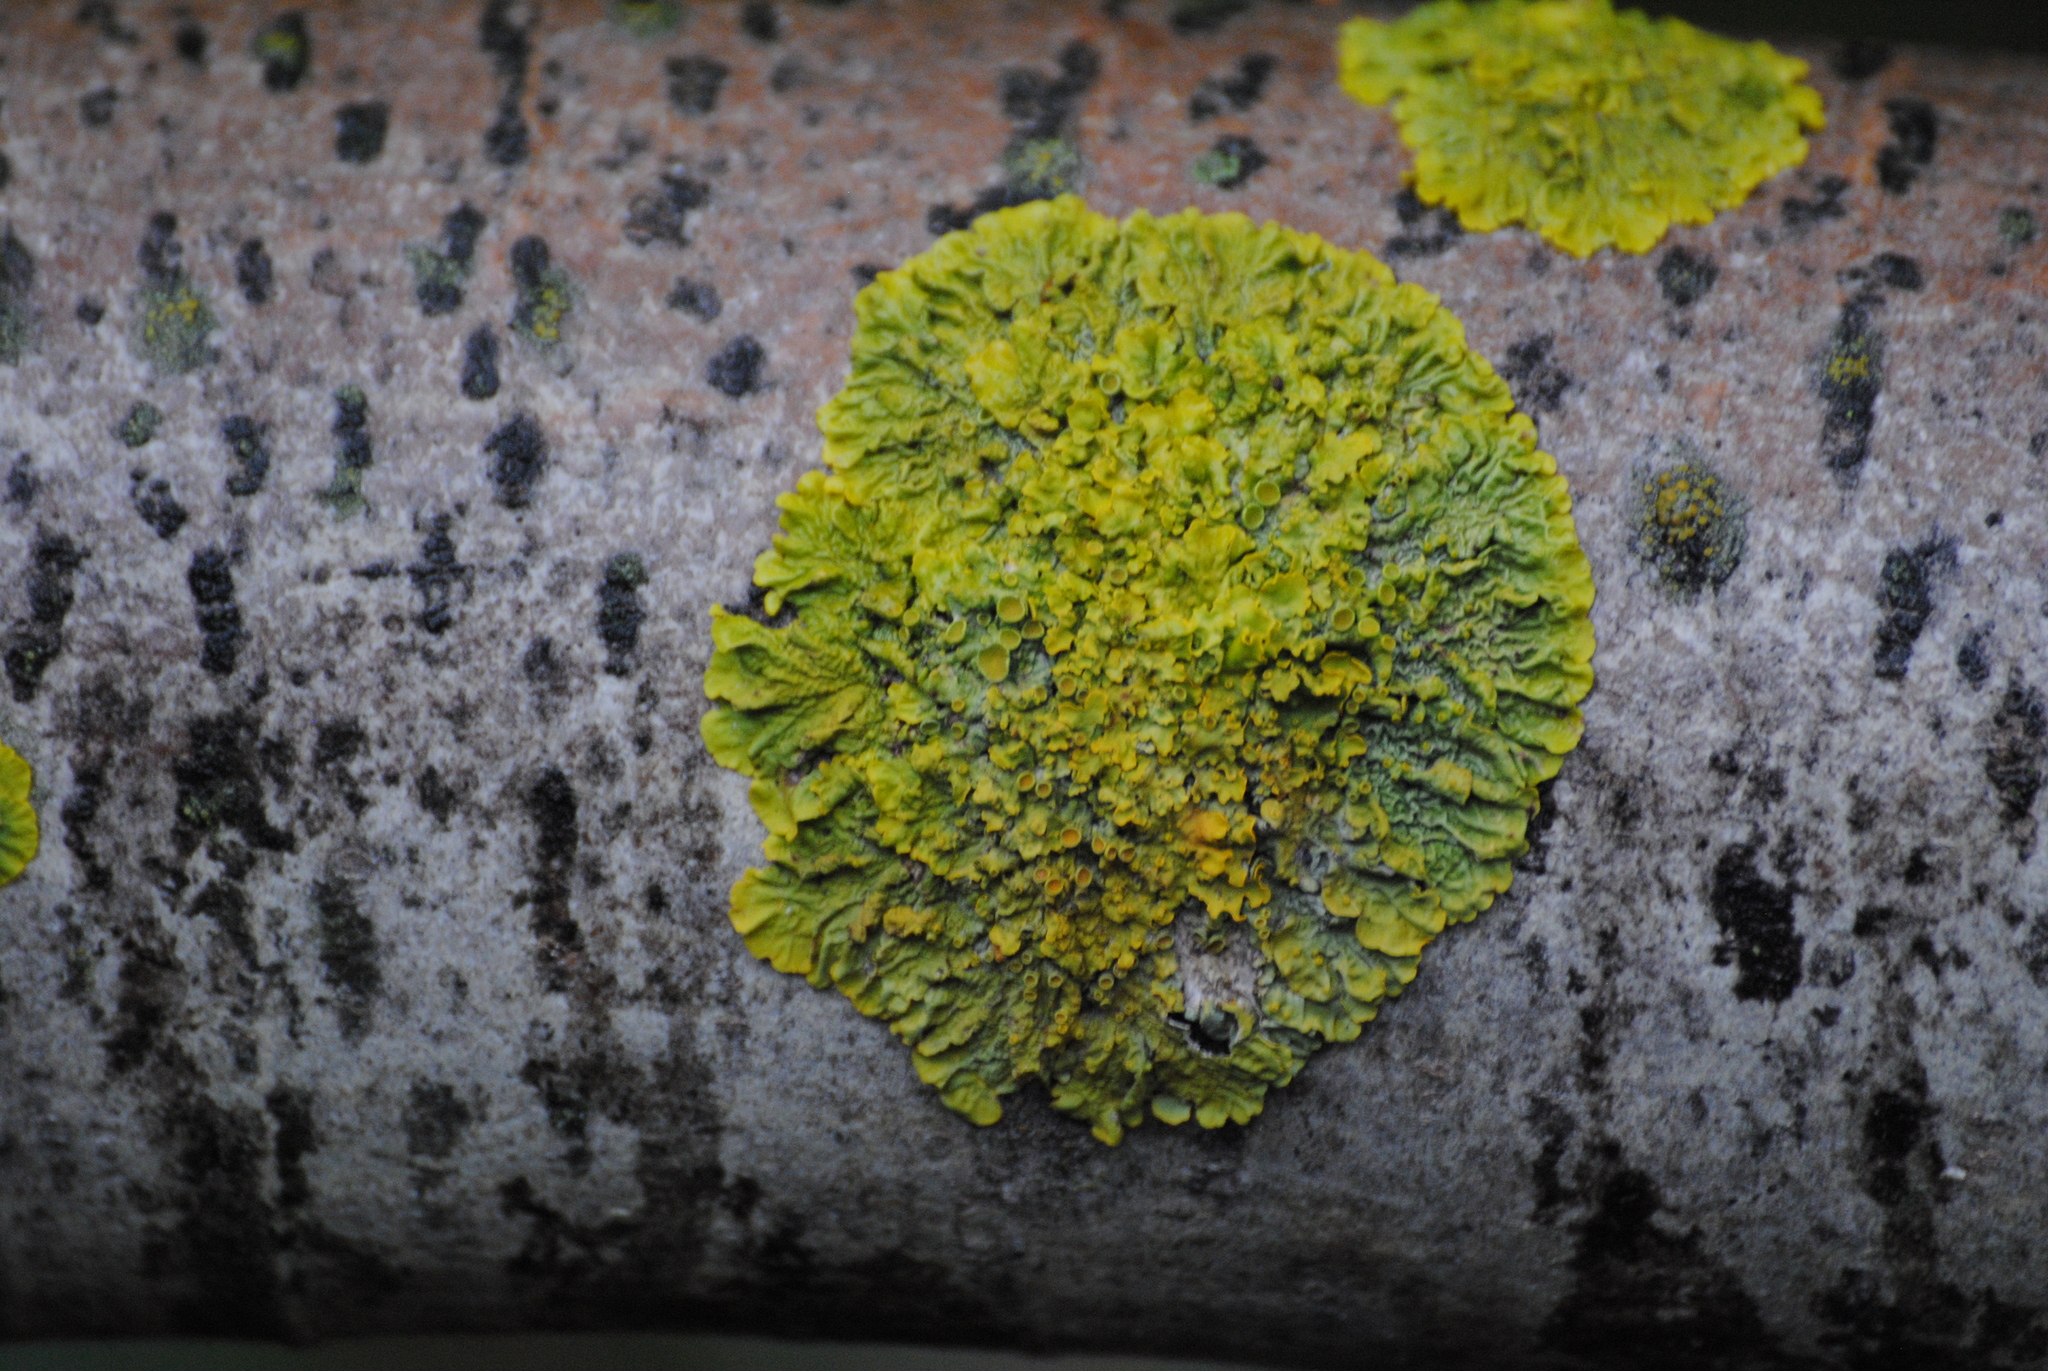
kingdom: Fungi
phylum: Ascomycota
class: Lecanoromycetes
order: Teloschistales
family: Teloschistaceae
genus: Xanthoria
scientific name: Xanthoria parietina
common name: Common orange lichen
